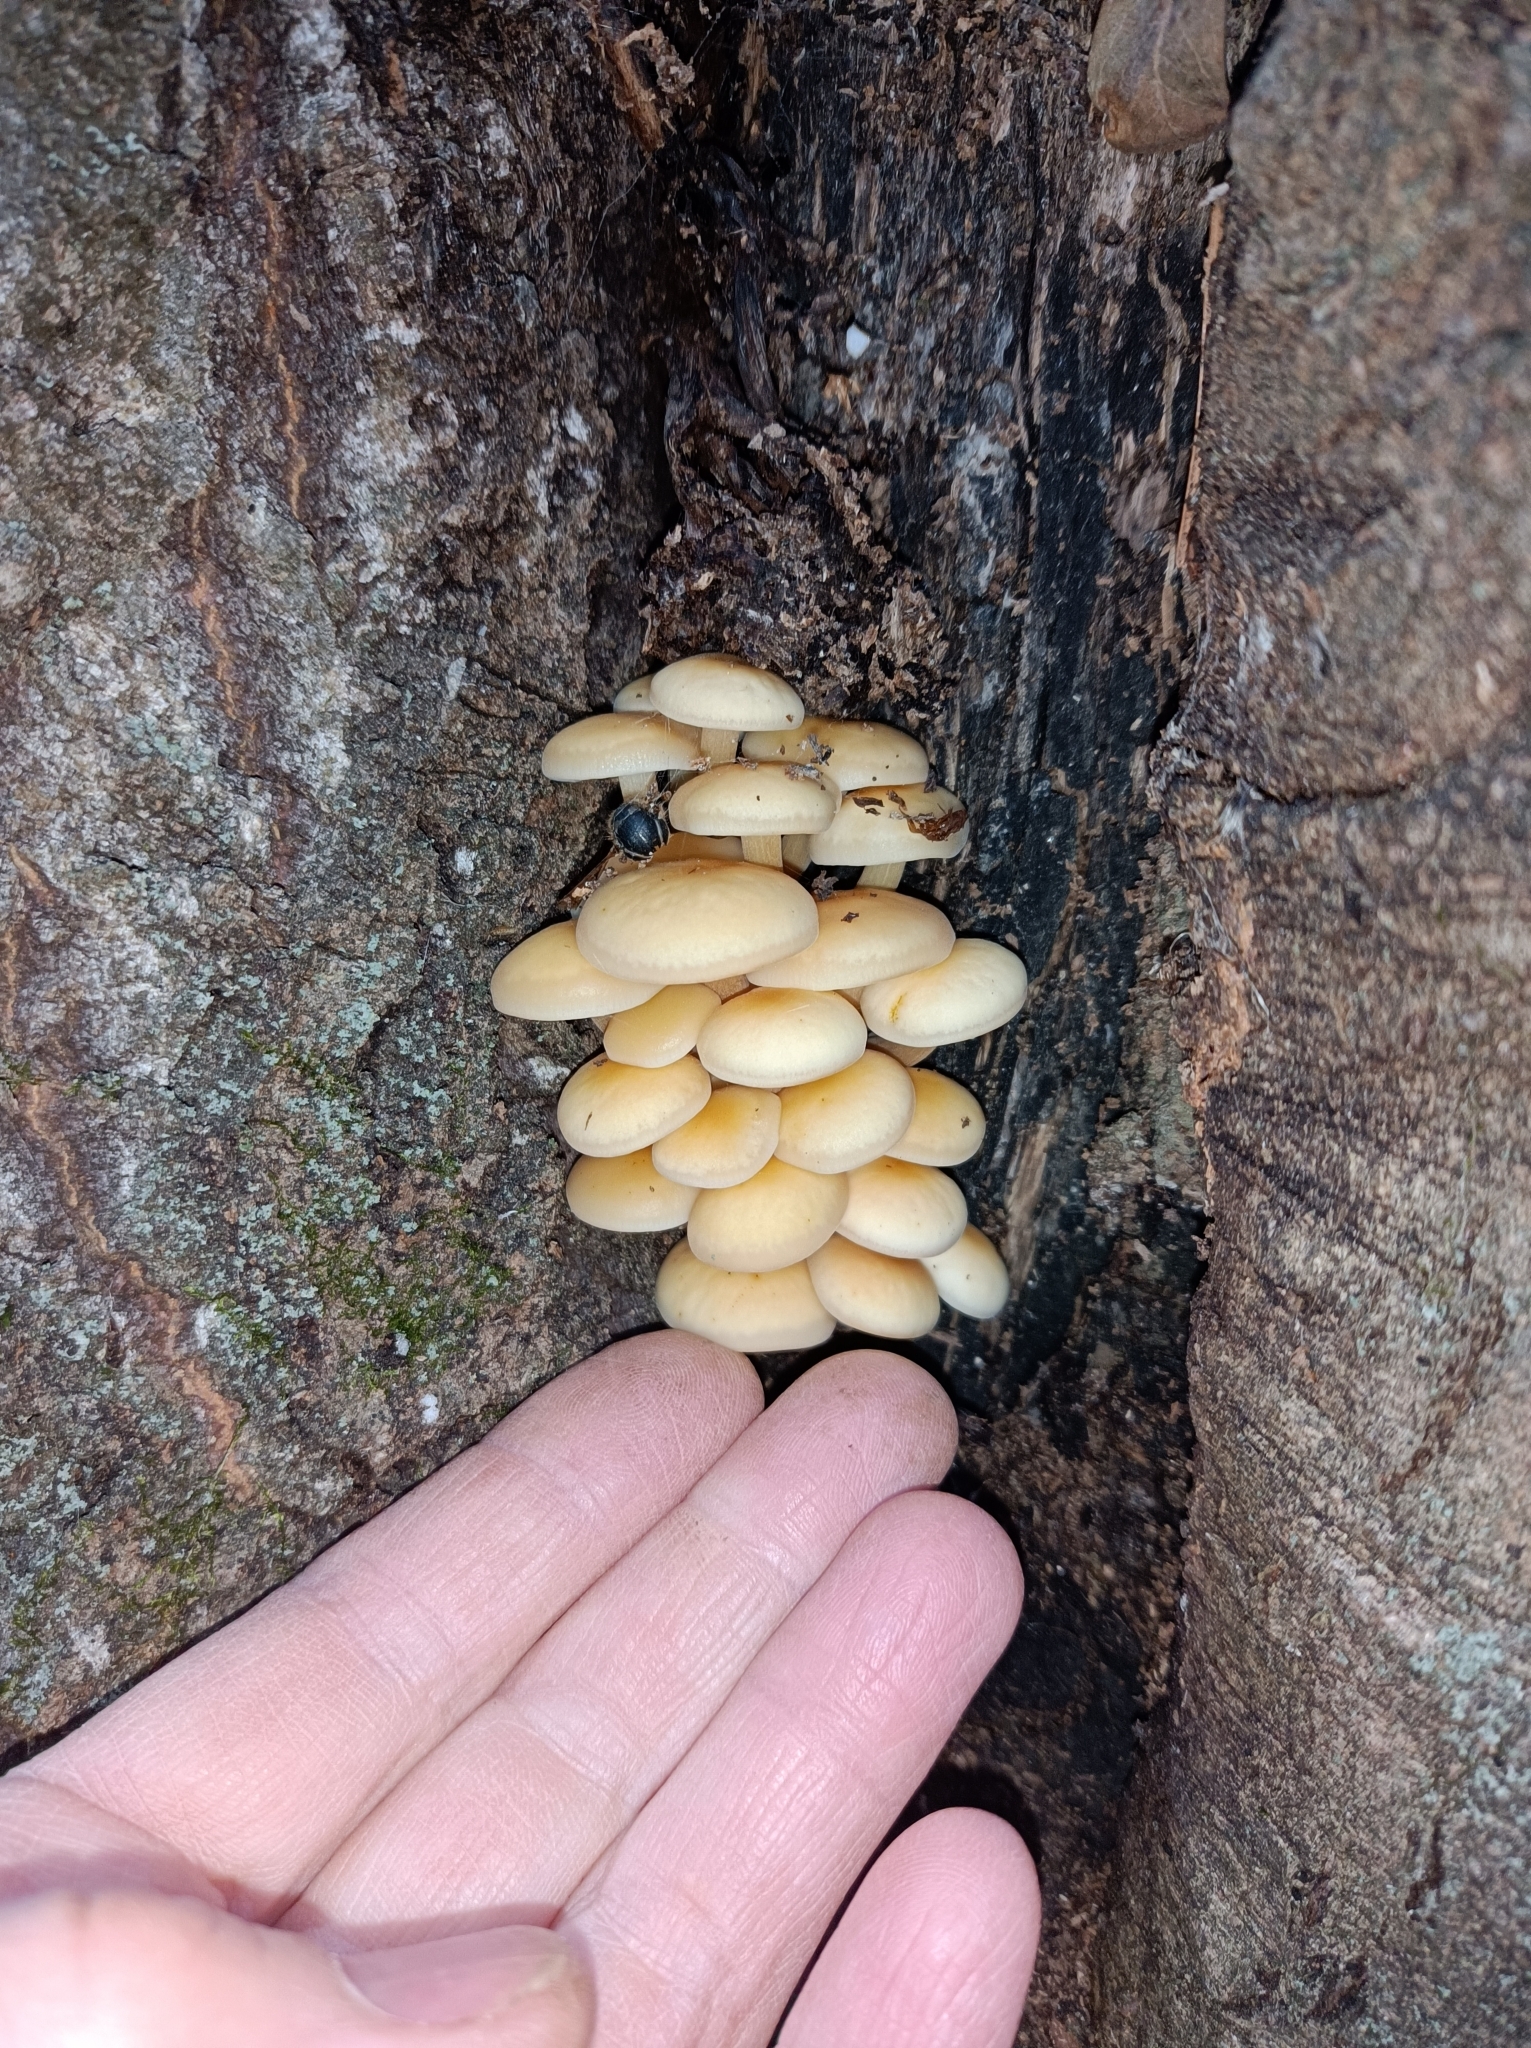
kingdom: Fungi
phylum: Basidiomycota
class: Agaricomycetes
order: Agaricales
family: Physalacriaceae
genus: Flammulina
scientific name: Flammulina
